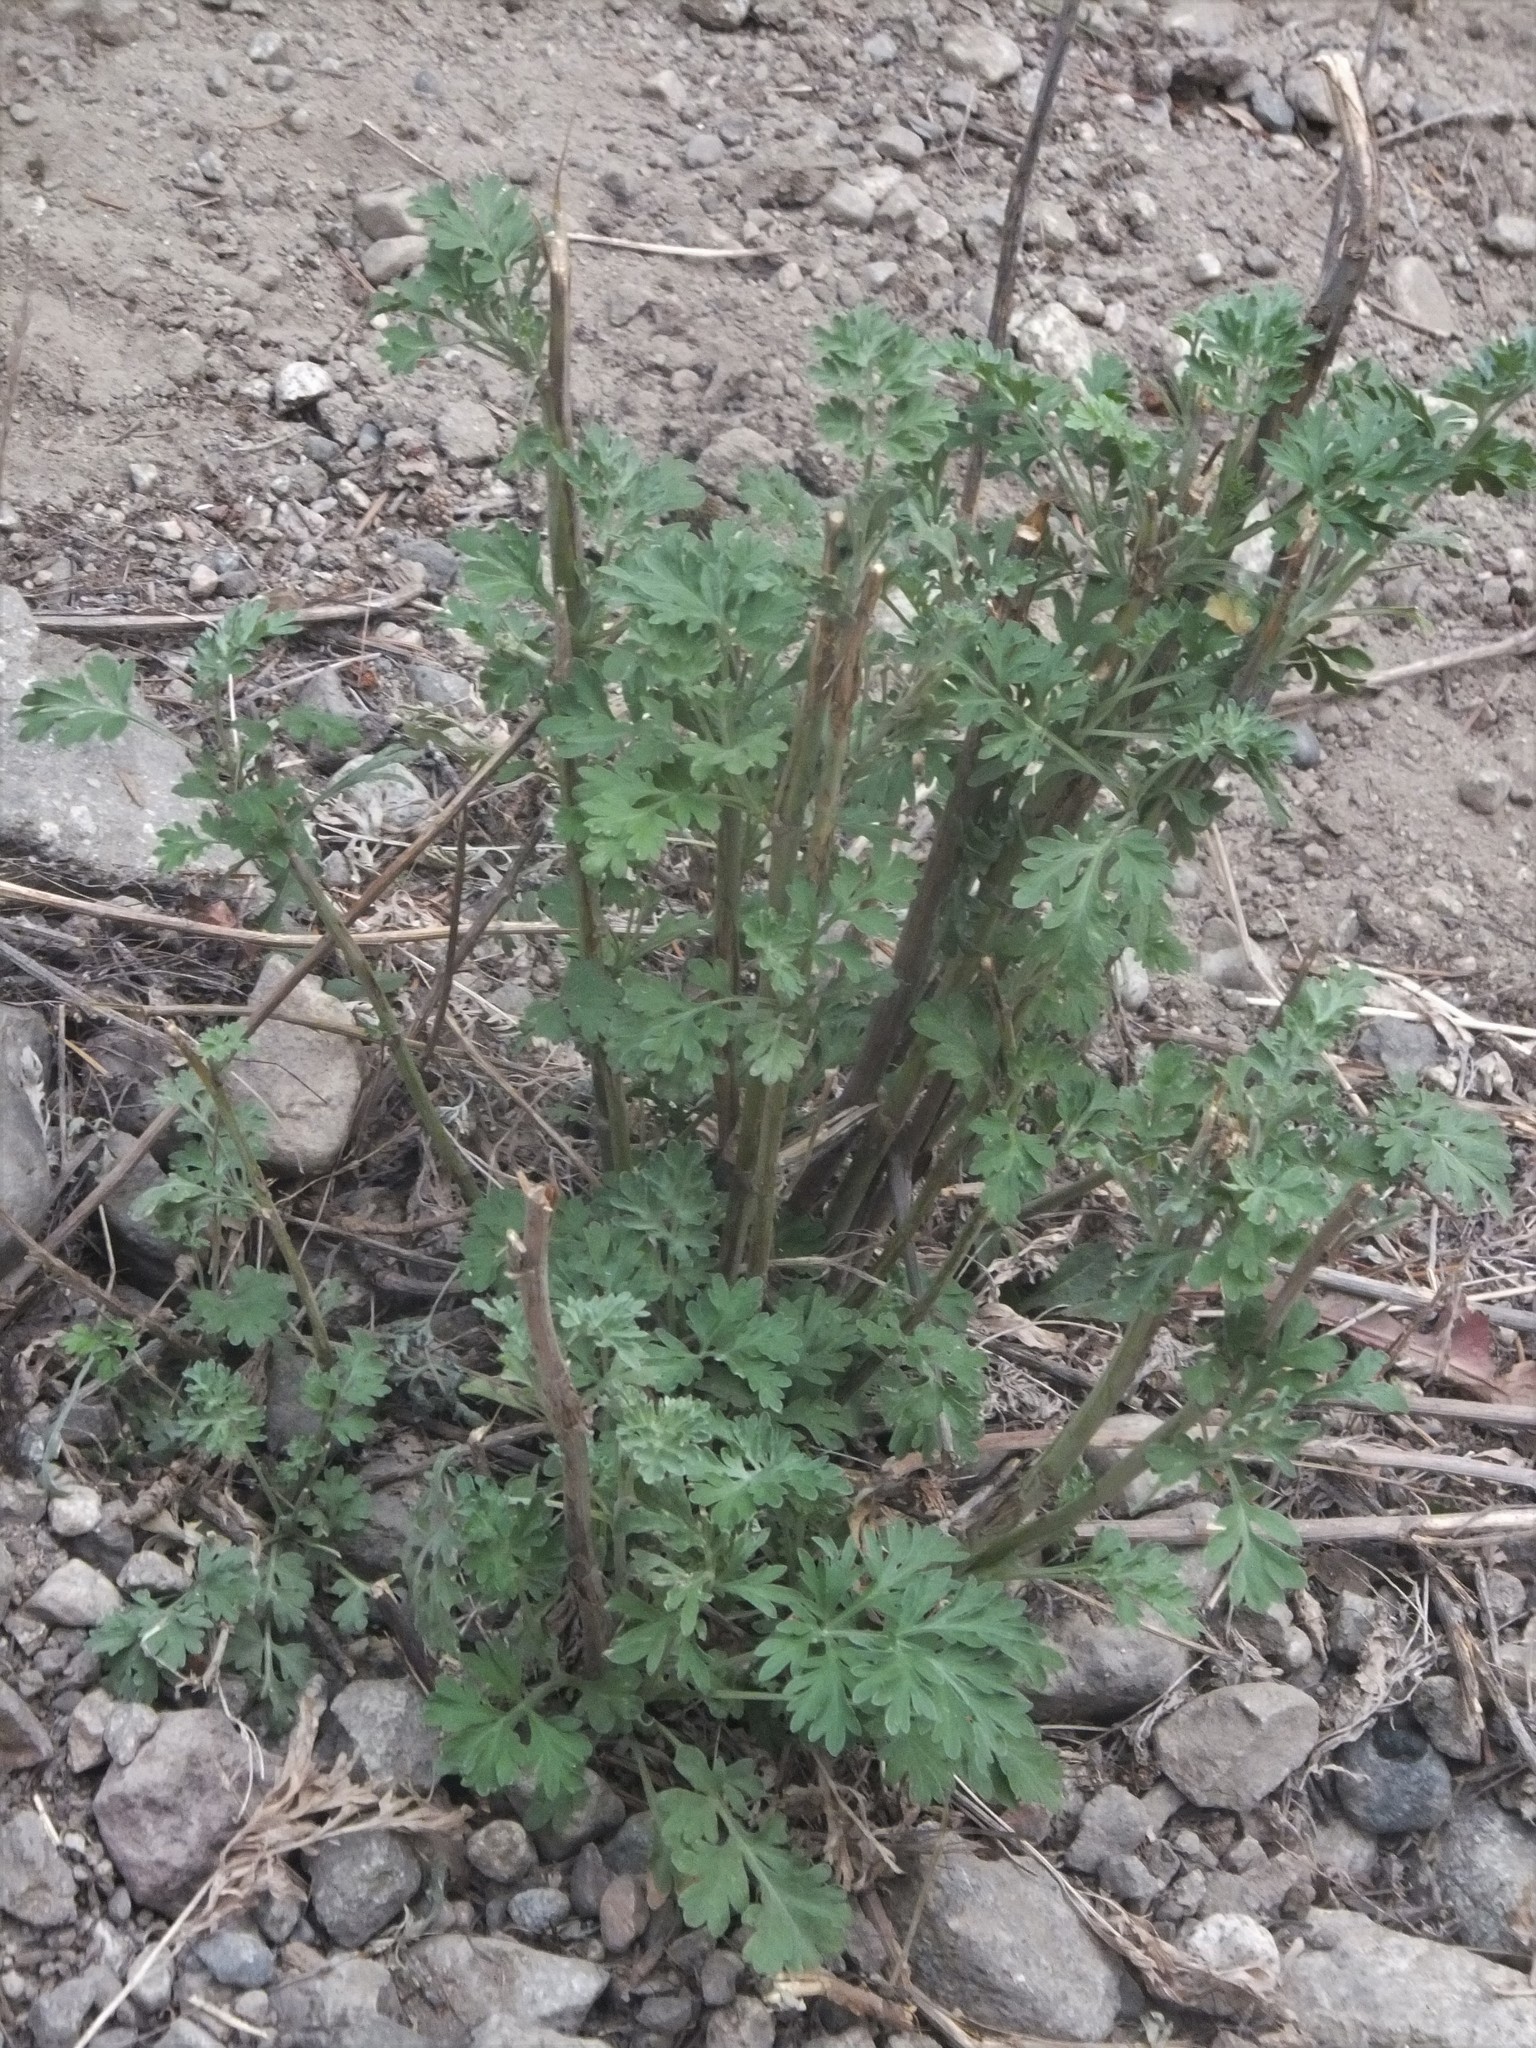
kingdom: Plantae
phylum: Tracheophyta
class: Magnoliopsida
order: Asterales
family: Asteraceae
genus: Artemisia
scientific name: Artemisia absinthium
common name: Wormwood
